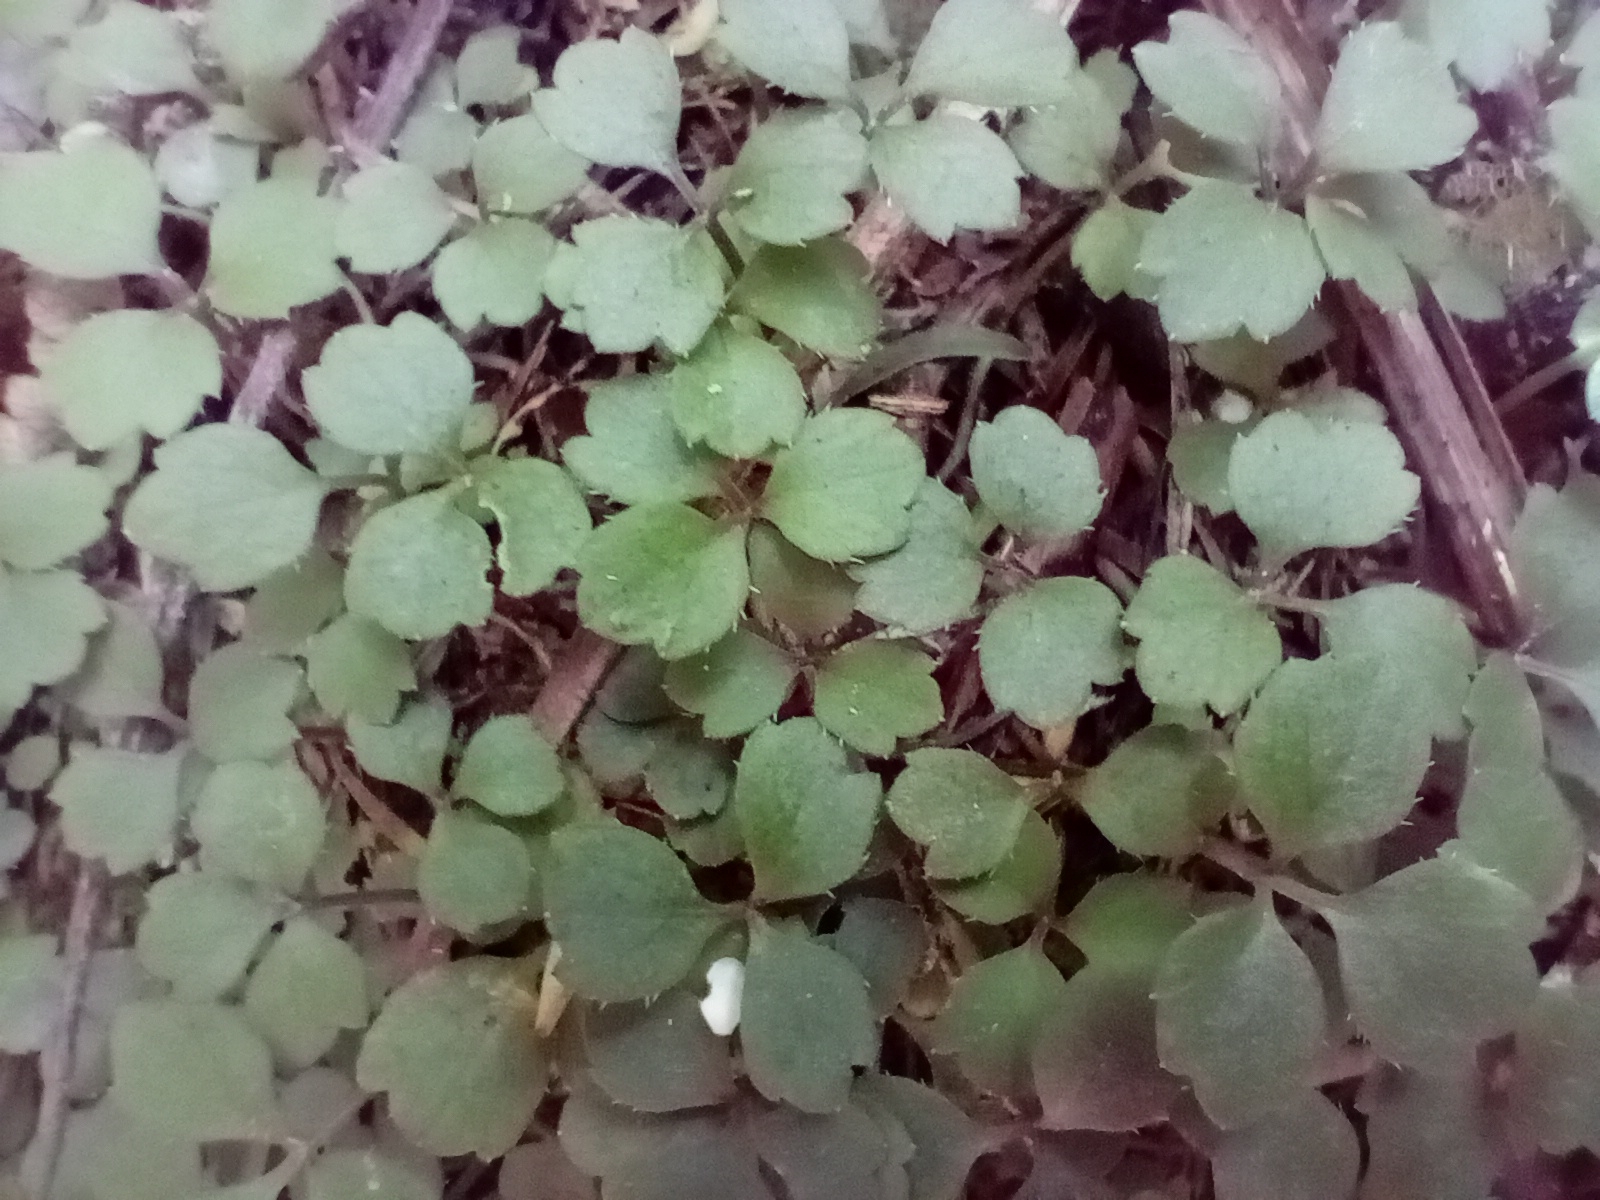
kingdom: Plantae
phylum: Tracheophyta
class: Magnoliopsida
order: Apiales
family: Apiaceae
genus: Azorella
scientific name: Azorella hookeri
